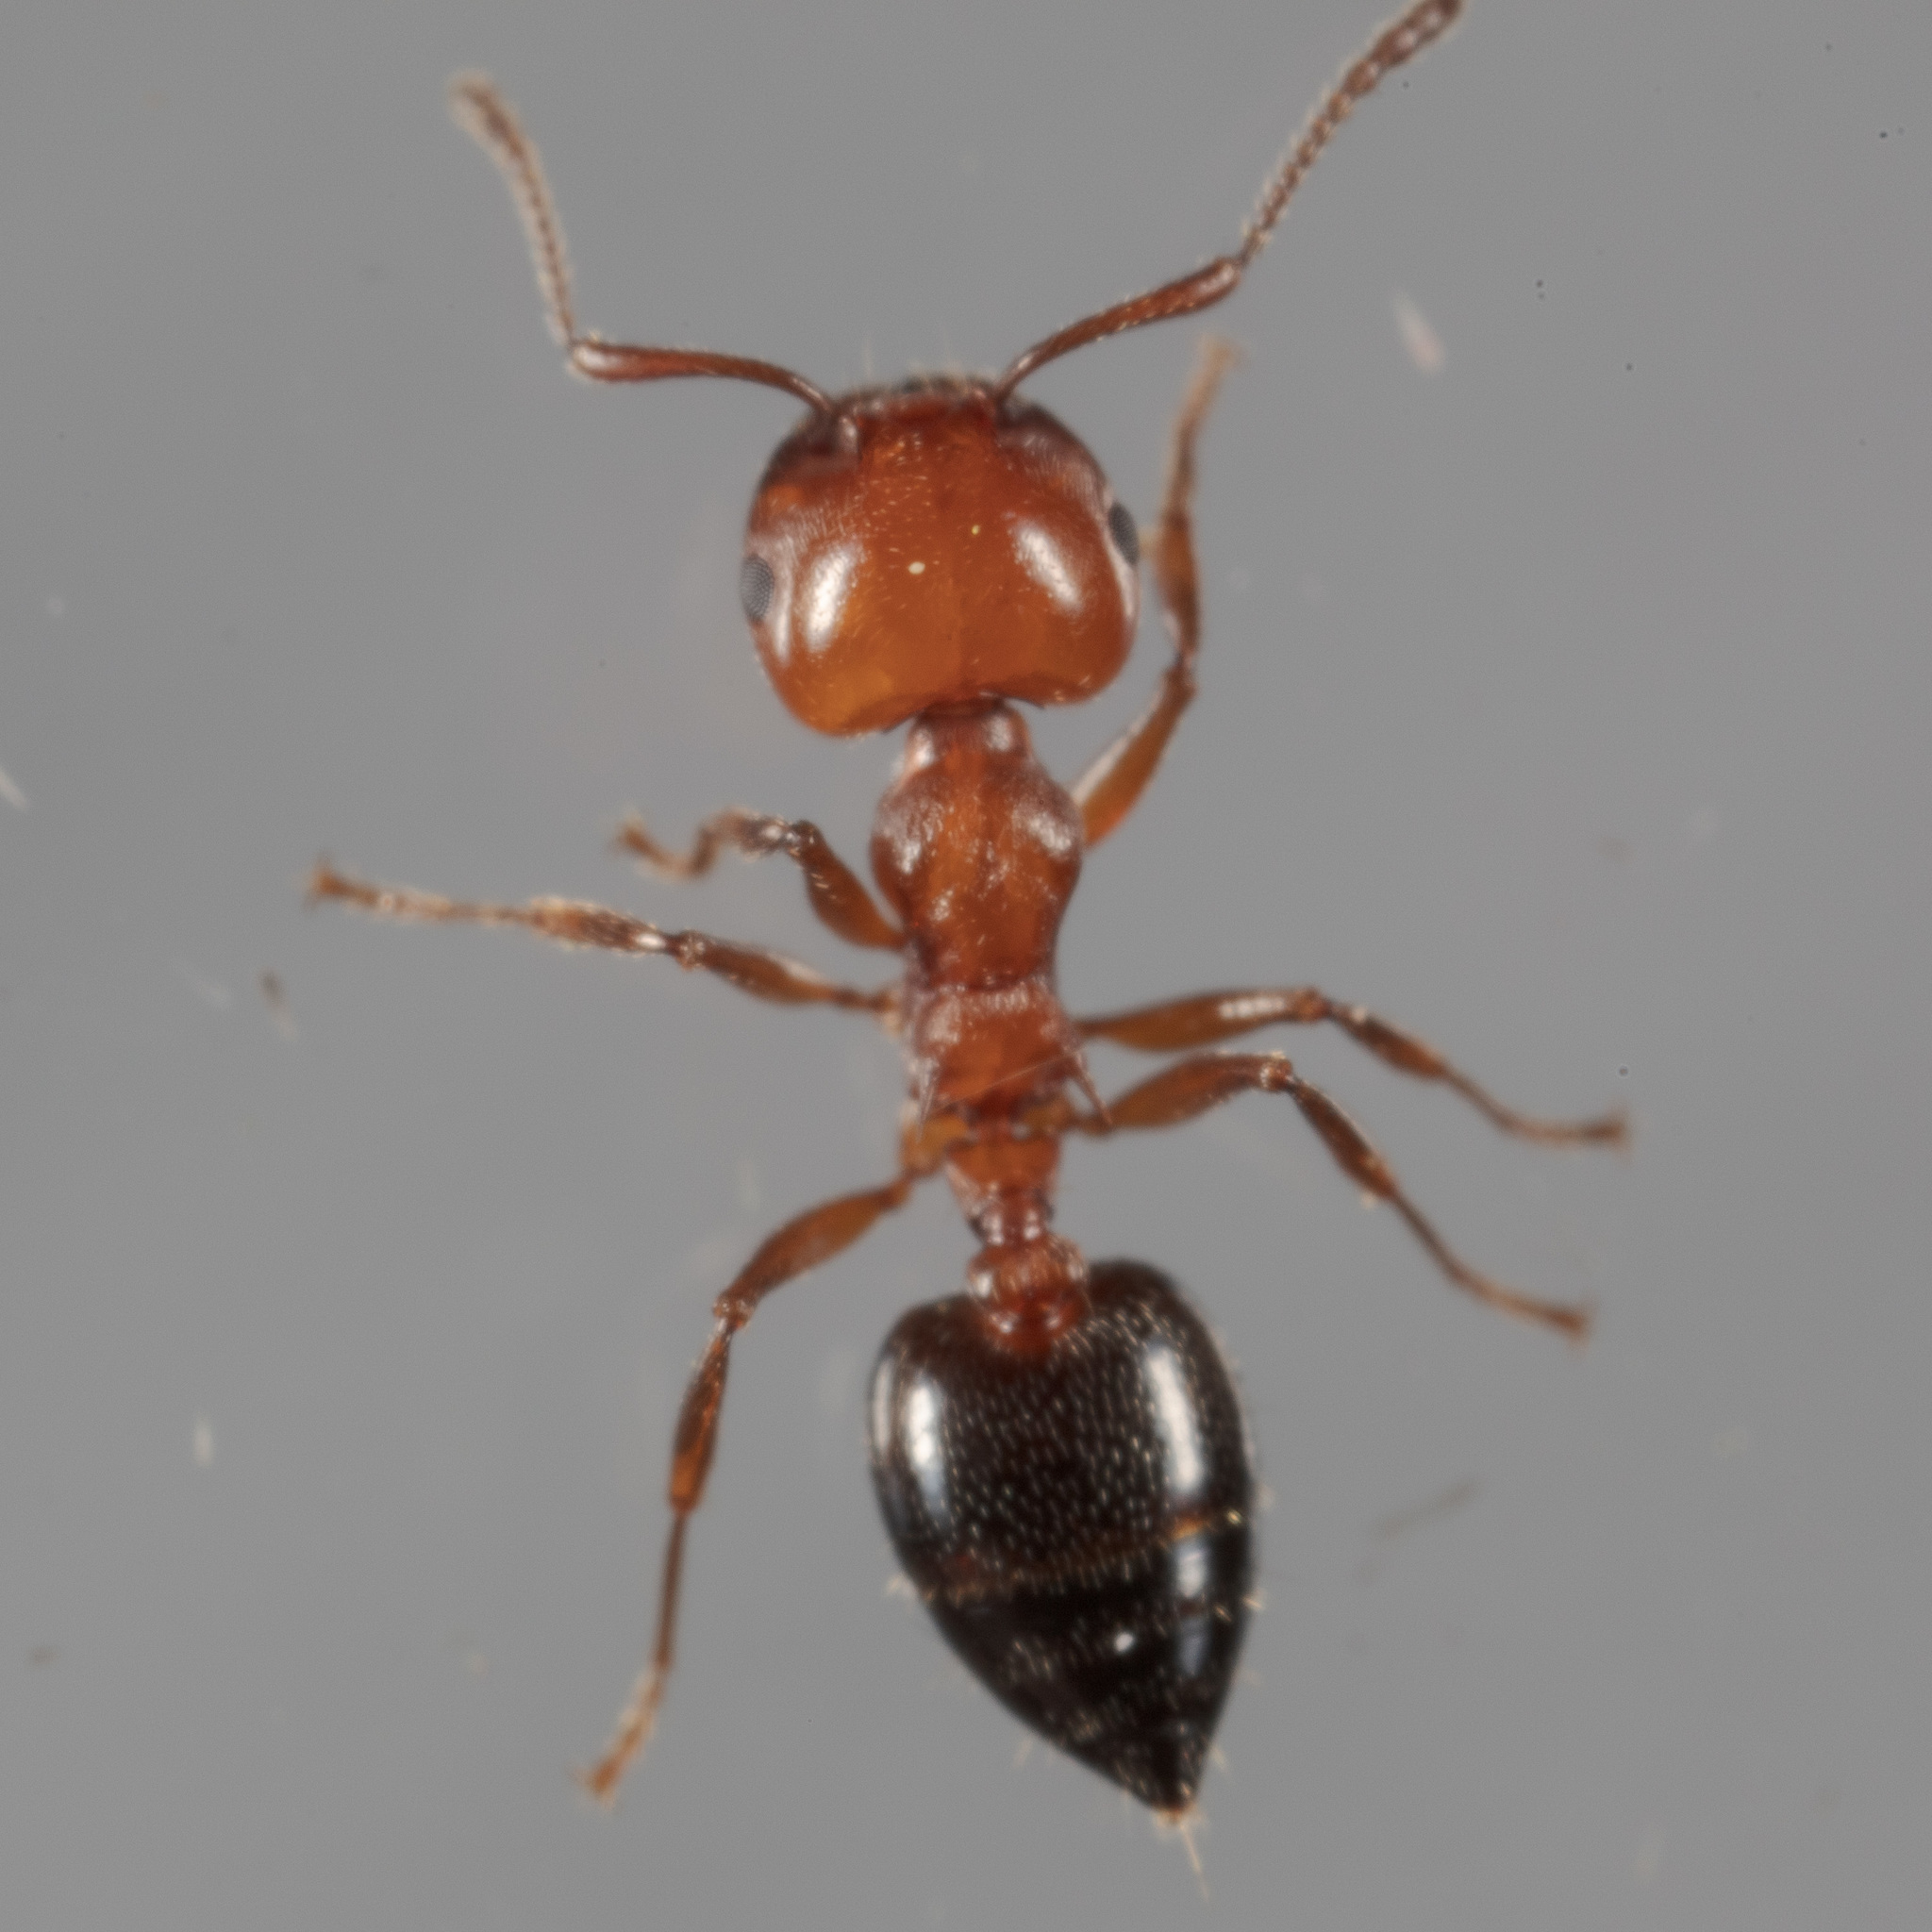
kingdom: Animalia
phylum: Arthropoda
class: Insecta
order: Hymenoptera
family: Formicidae
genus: Crematogaster
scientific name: Crematogaster laeviuscula
